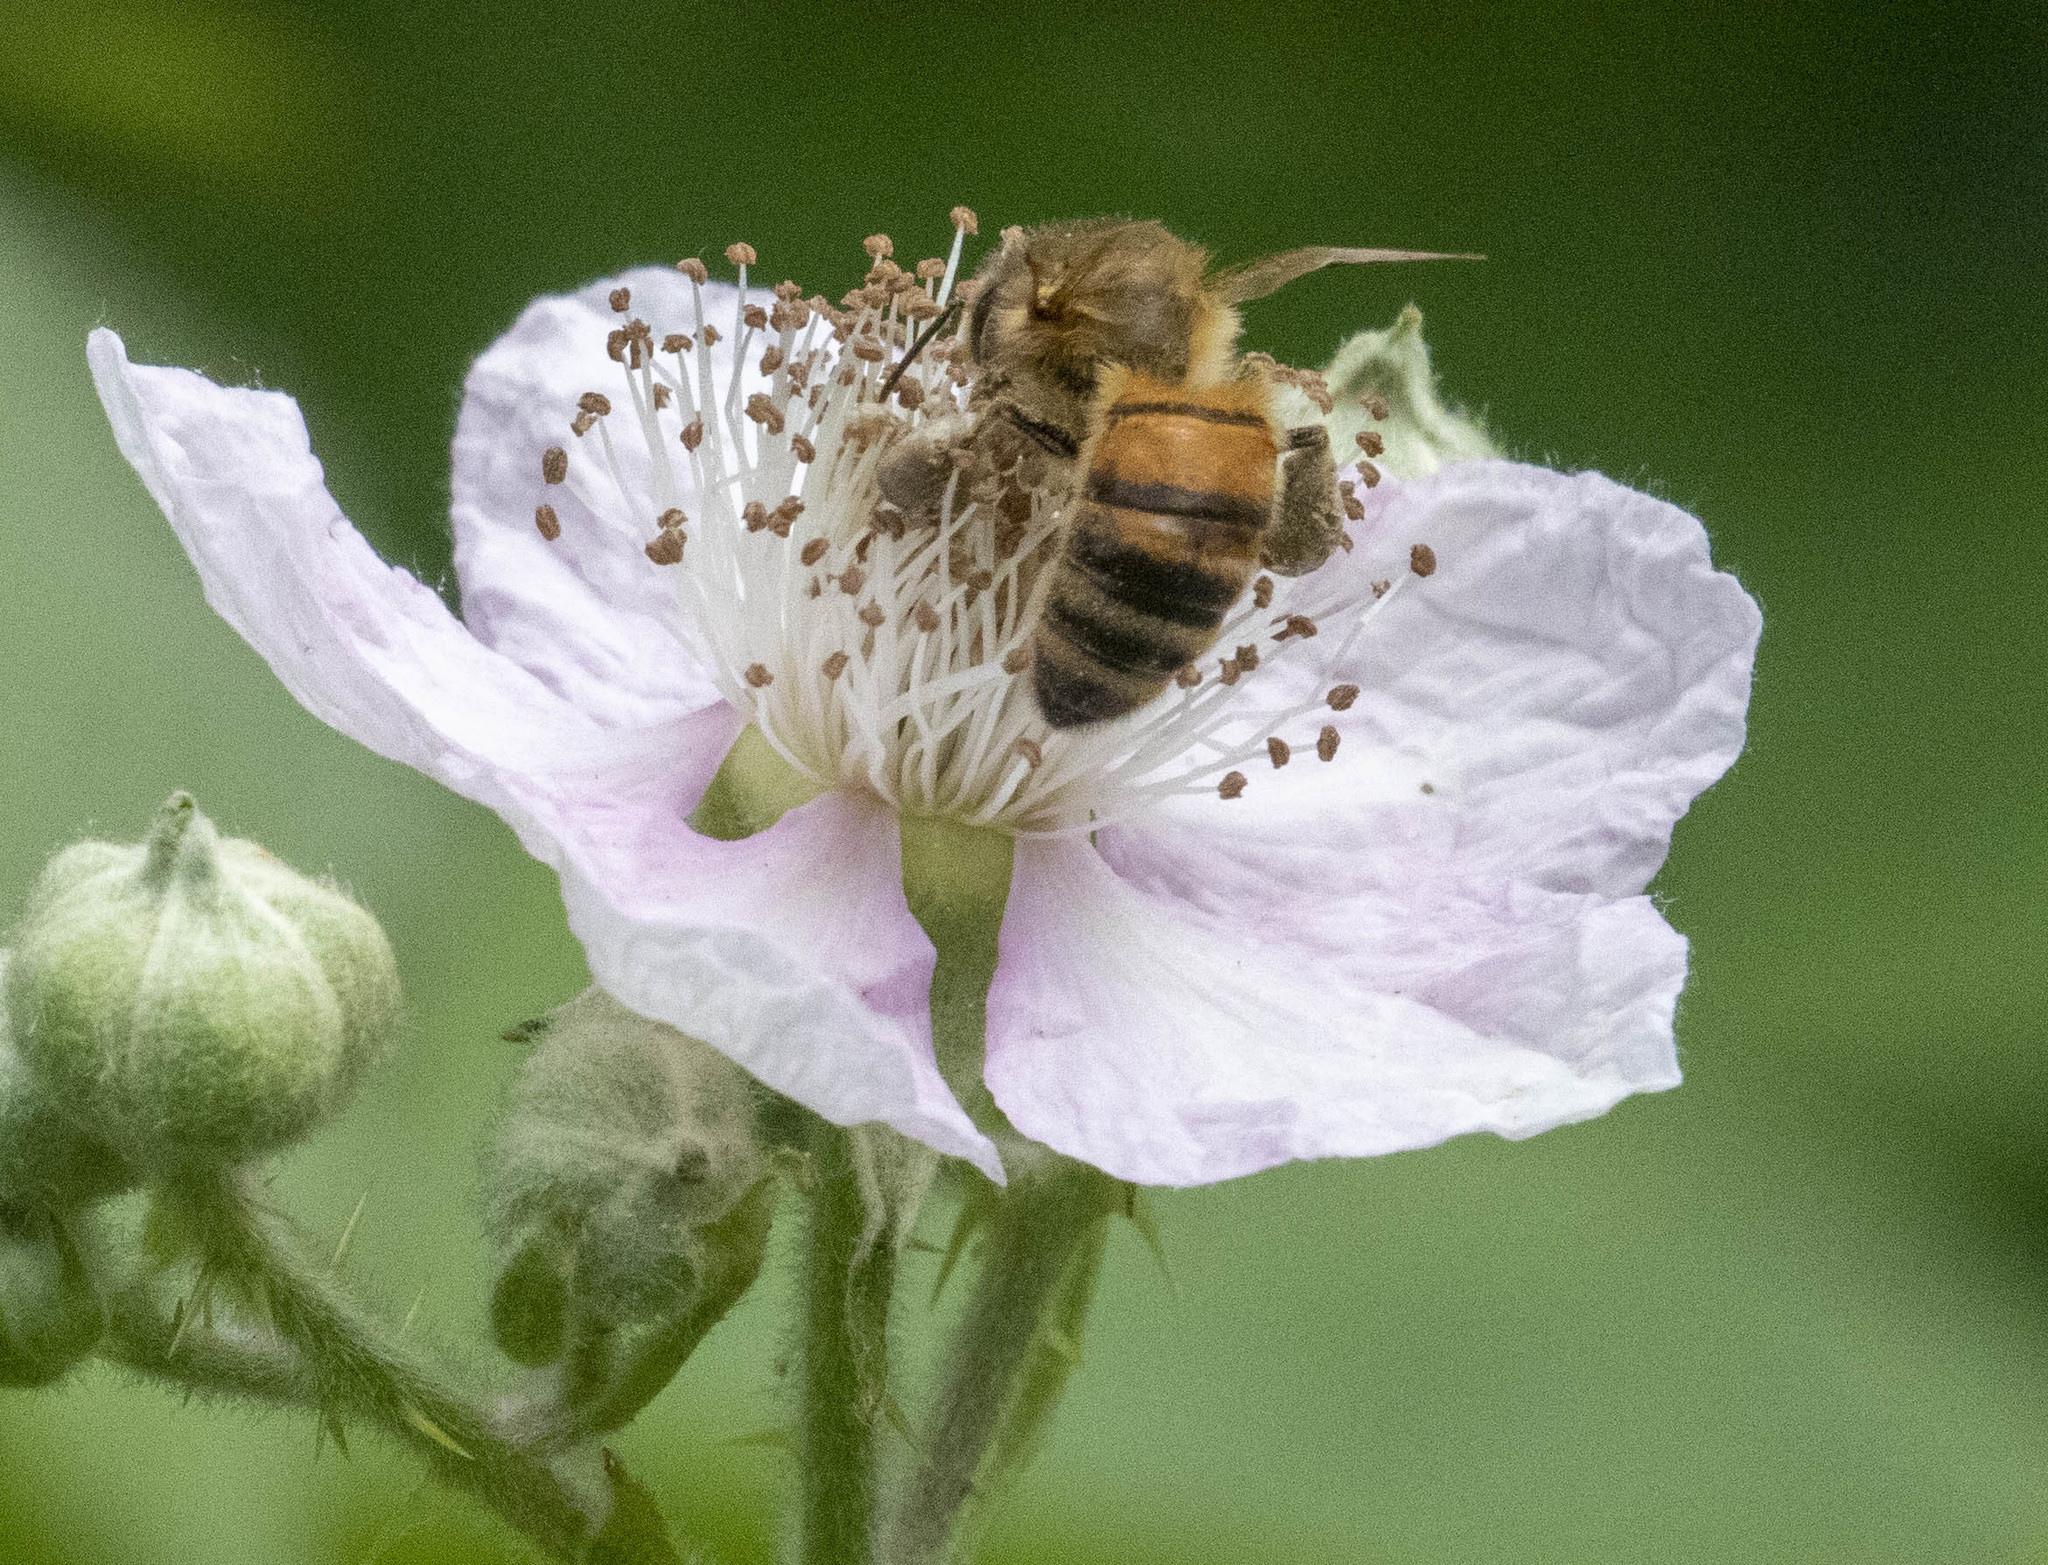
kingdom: Animalia
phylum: Arthropoda
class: Insecta
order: Hymenoptera
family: Apidae
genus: Apis
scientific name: Apis mellifera
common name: Honey bee
